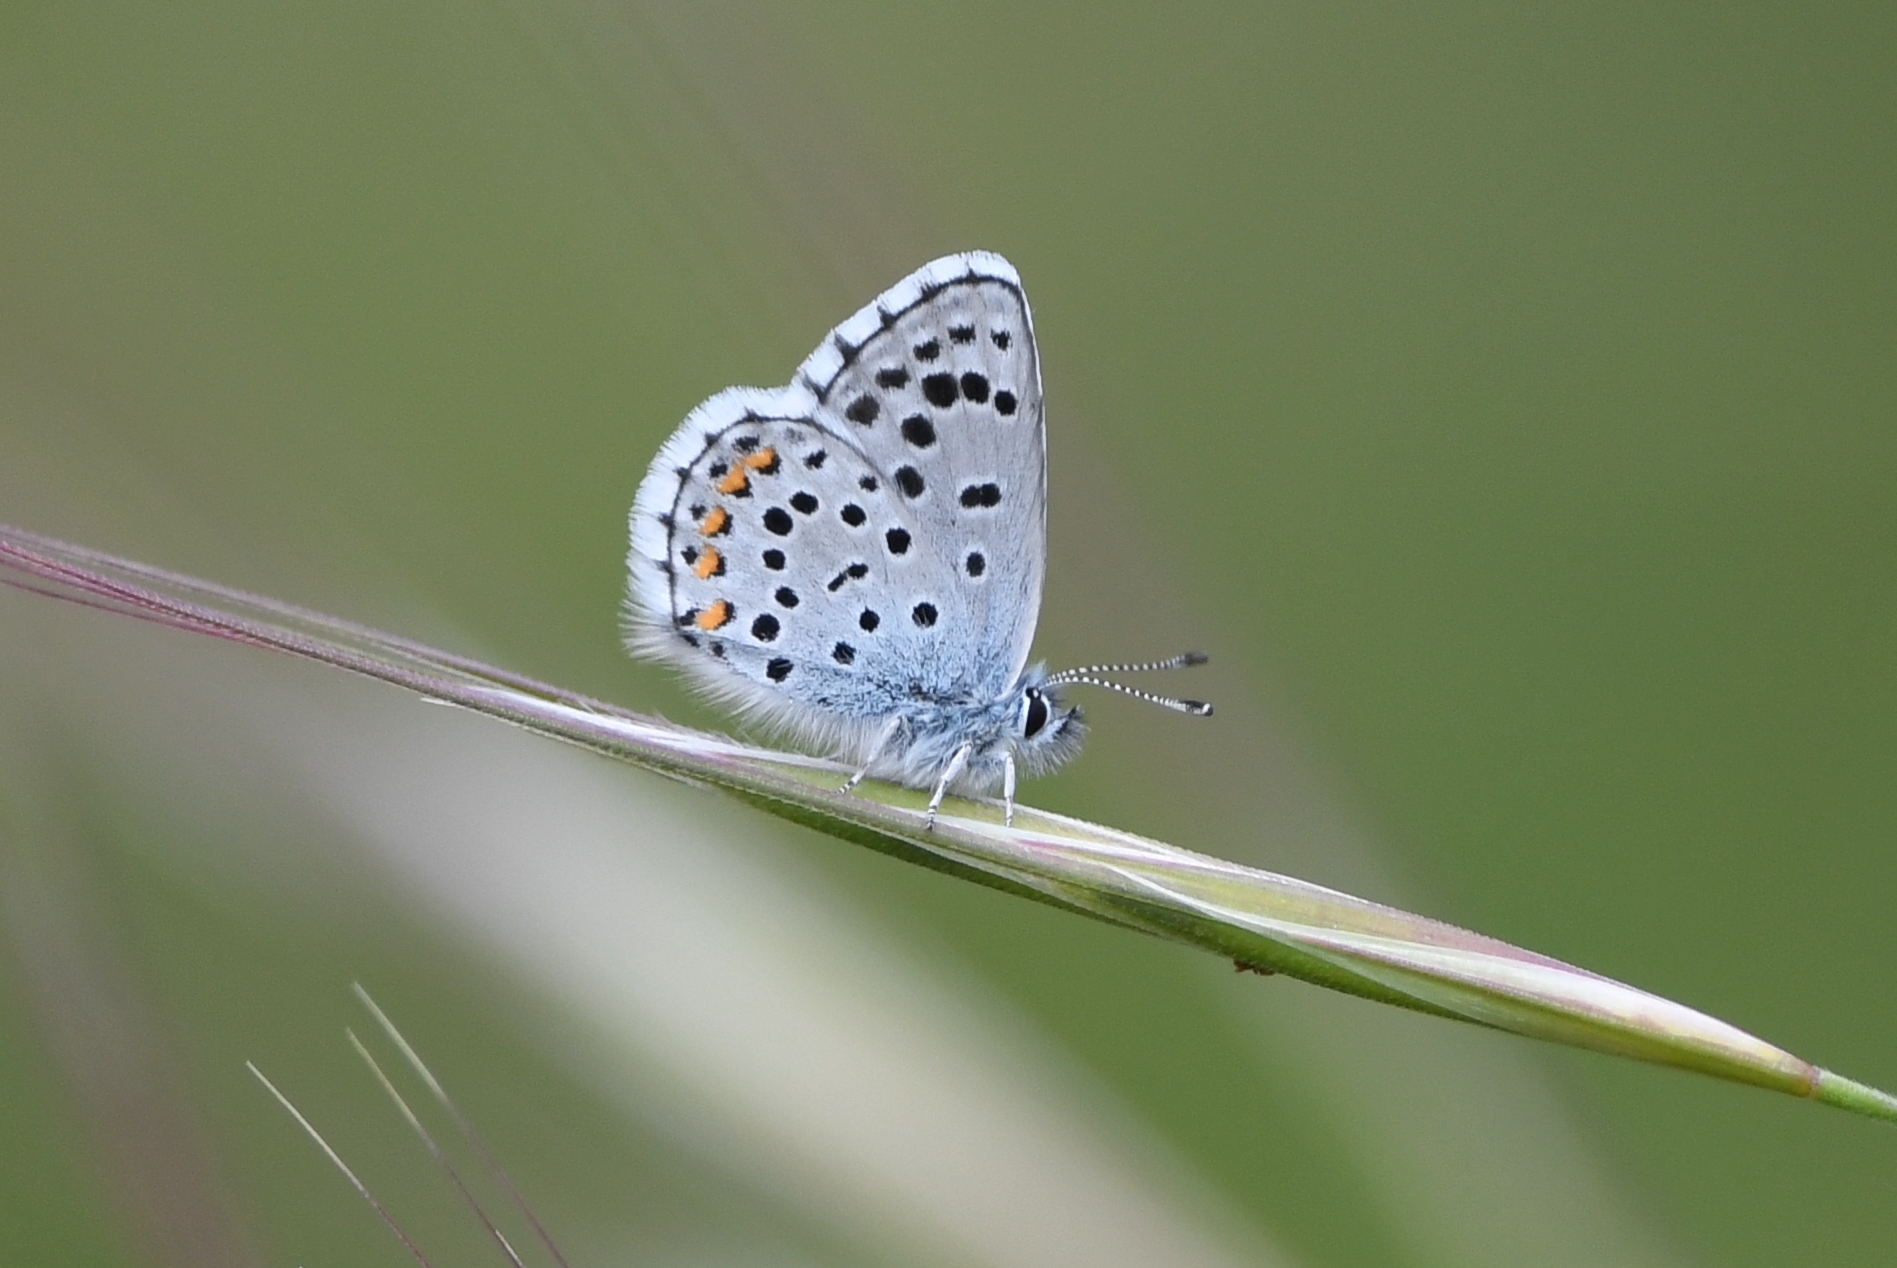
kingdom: Animalia
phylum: Arthropoda
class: Insecta
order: Lepidoptera
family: Lycaenidae
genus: Pseudophilotes
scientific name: Pseudophilotes baton
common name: Baton blue
